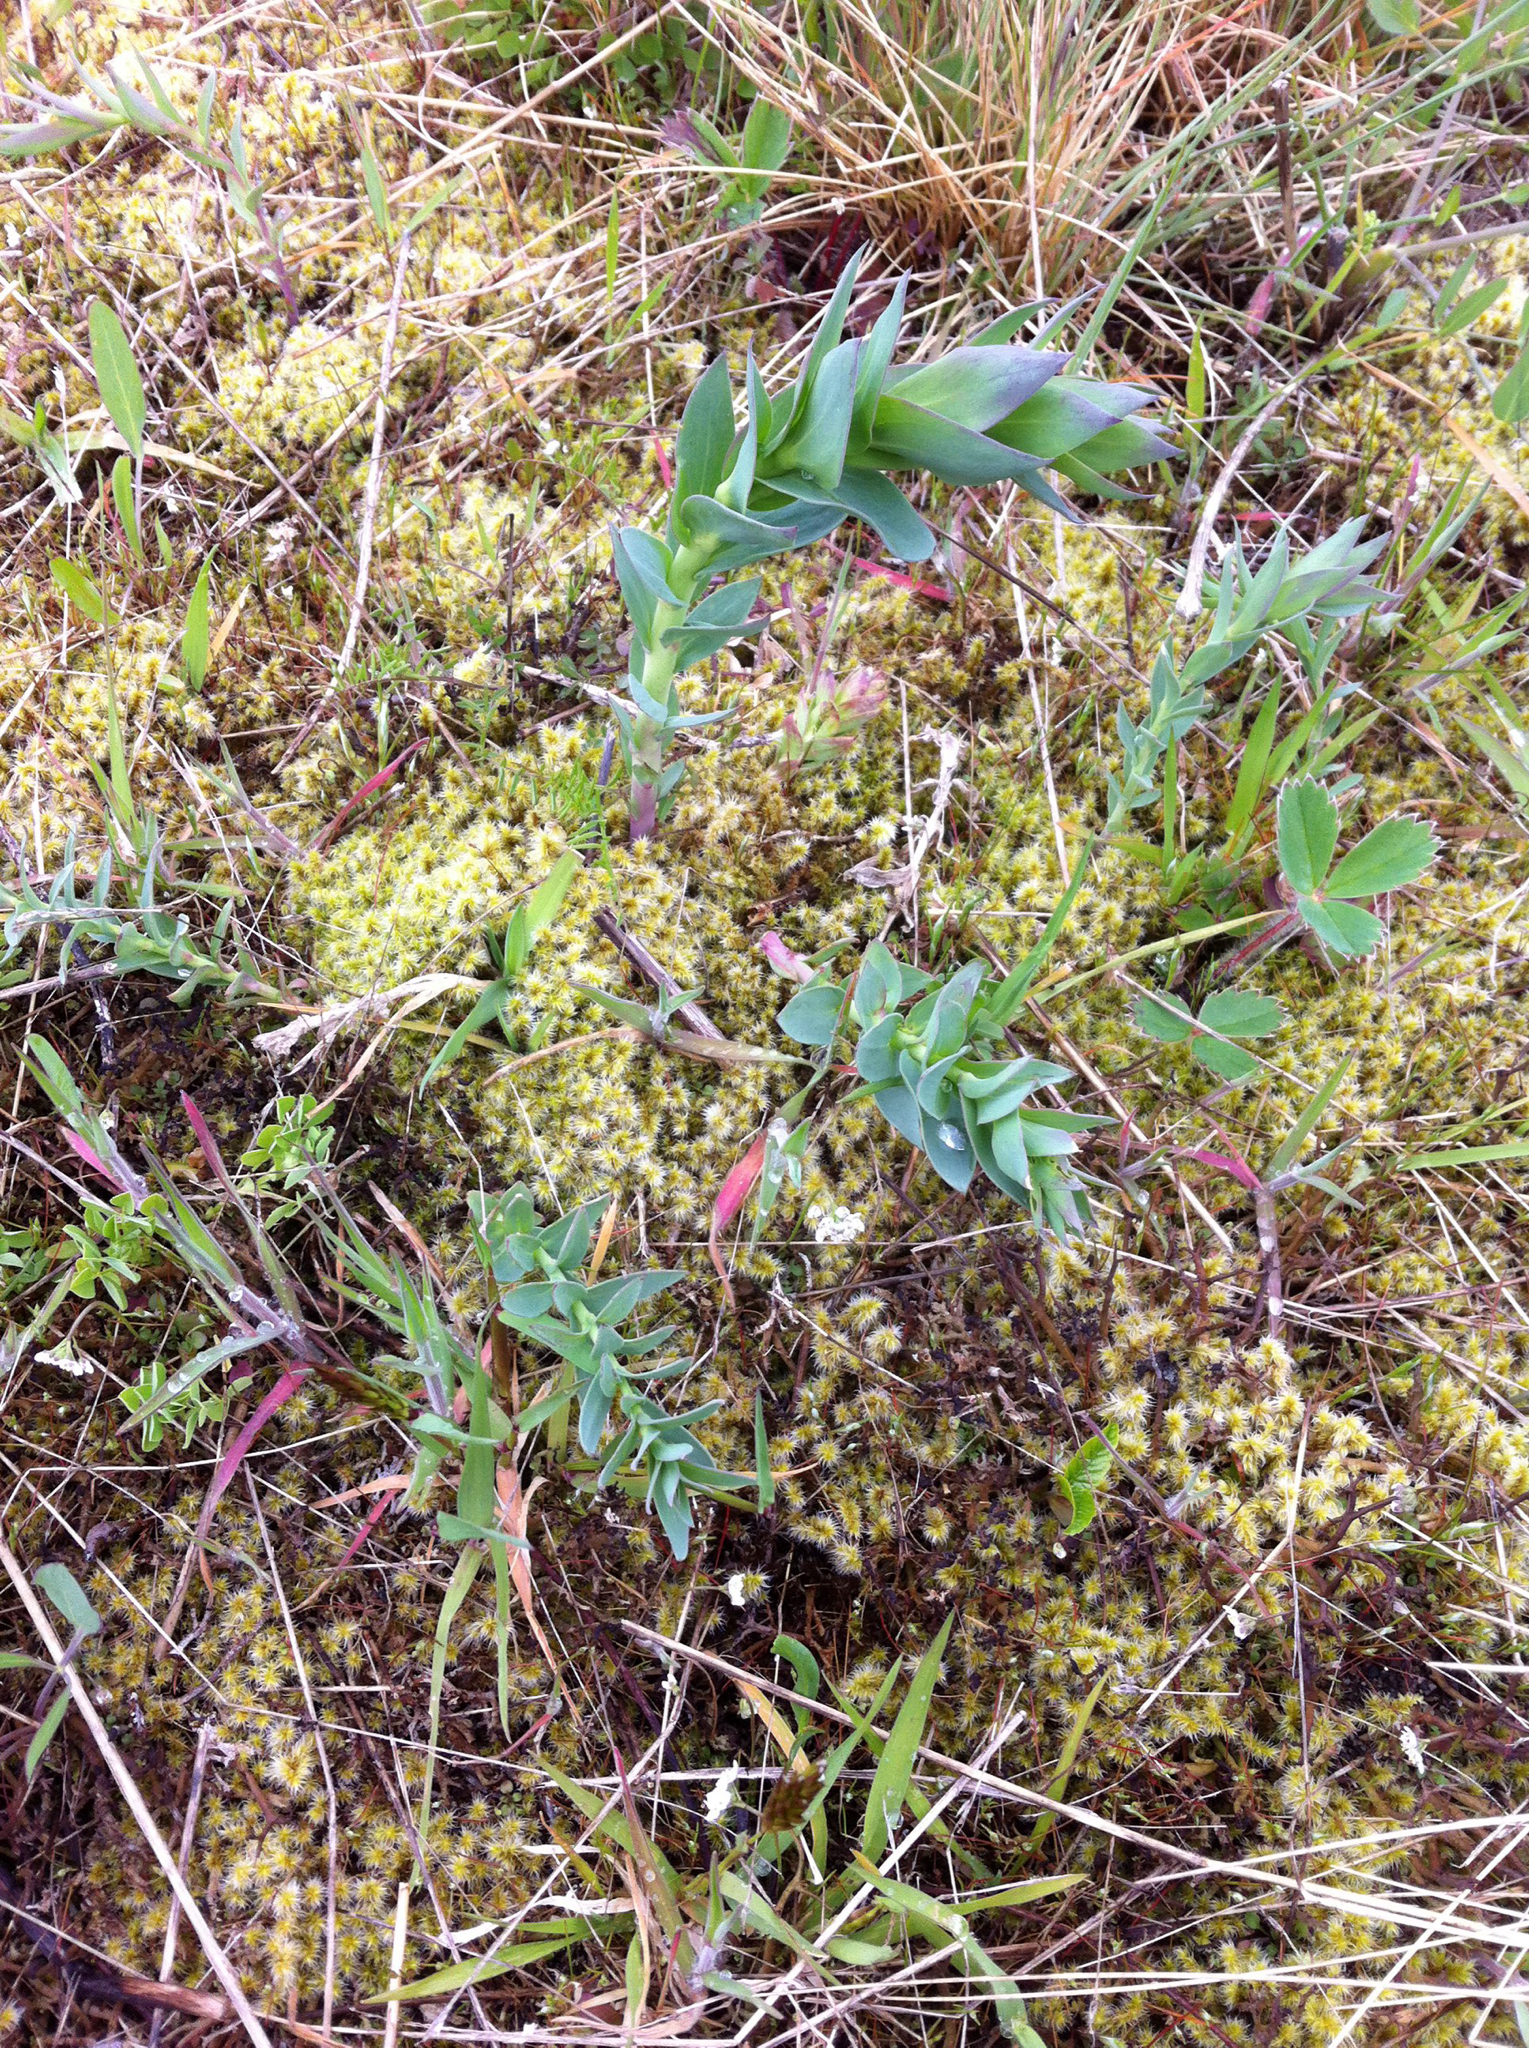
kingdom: Plantae
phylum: Tracheophyta
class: Magnoliopsida
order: Lamiales
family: Plantaginaceae
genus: Linaria
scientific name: Linaria dalmatica
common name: Dalmatian toadflax
